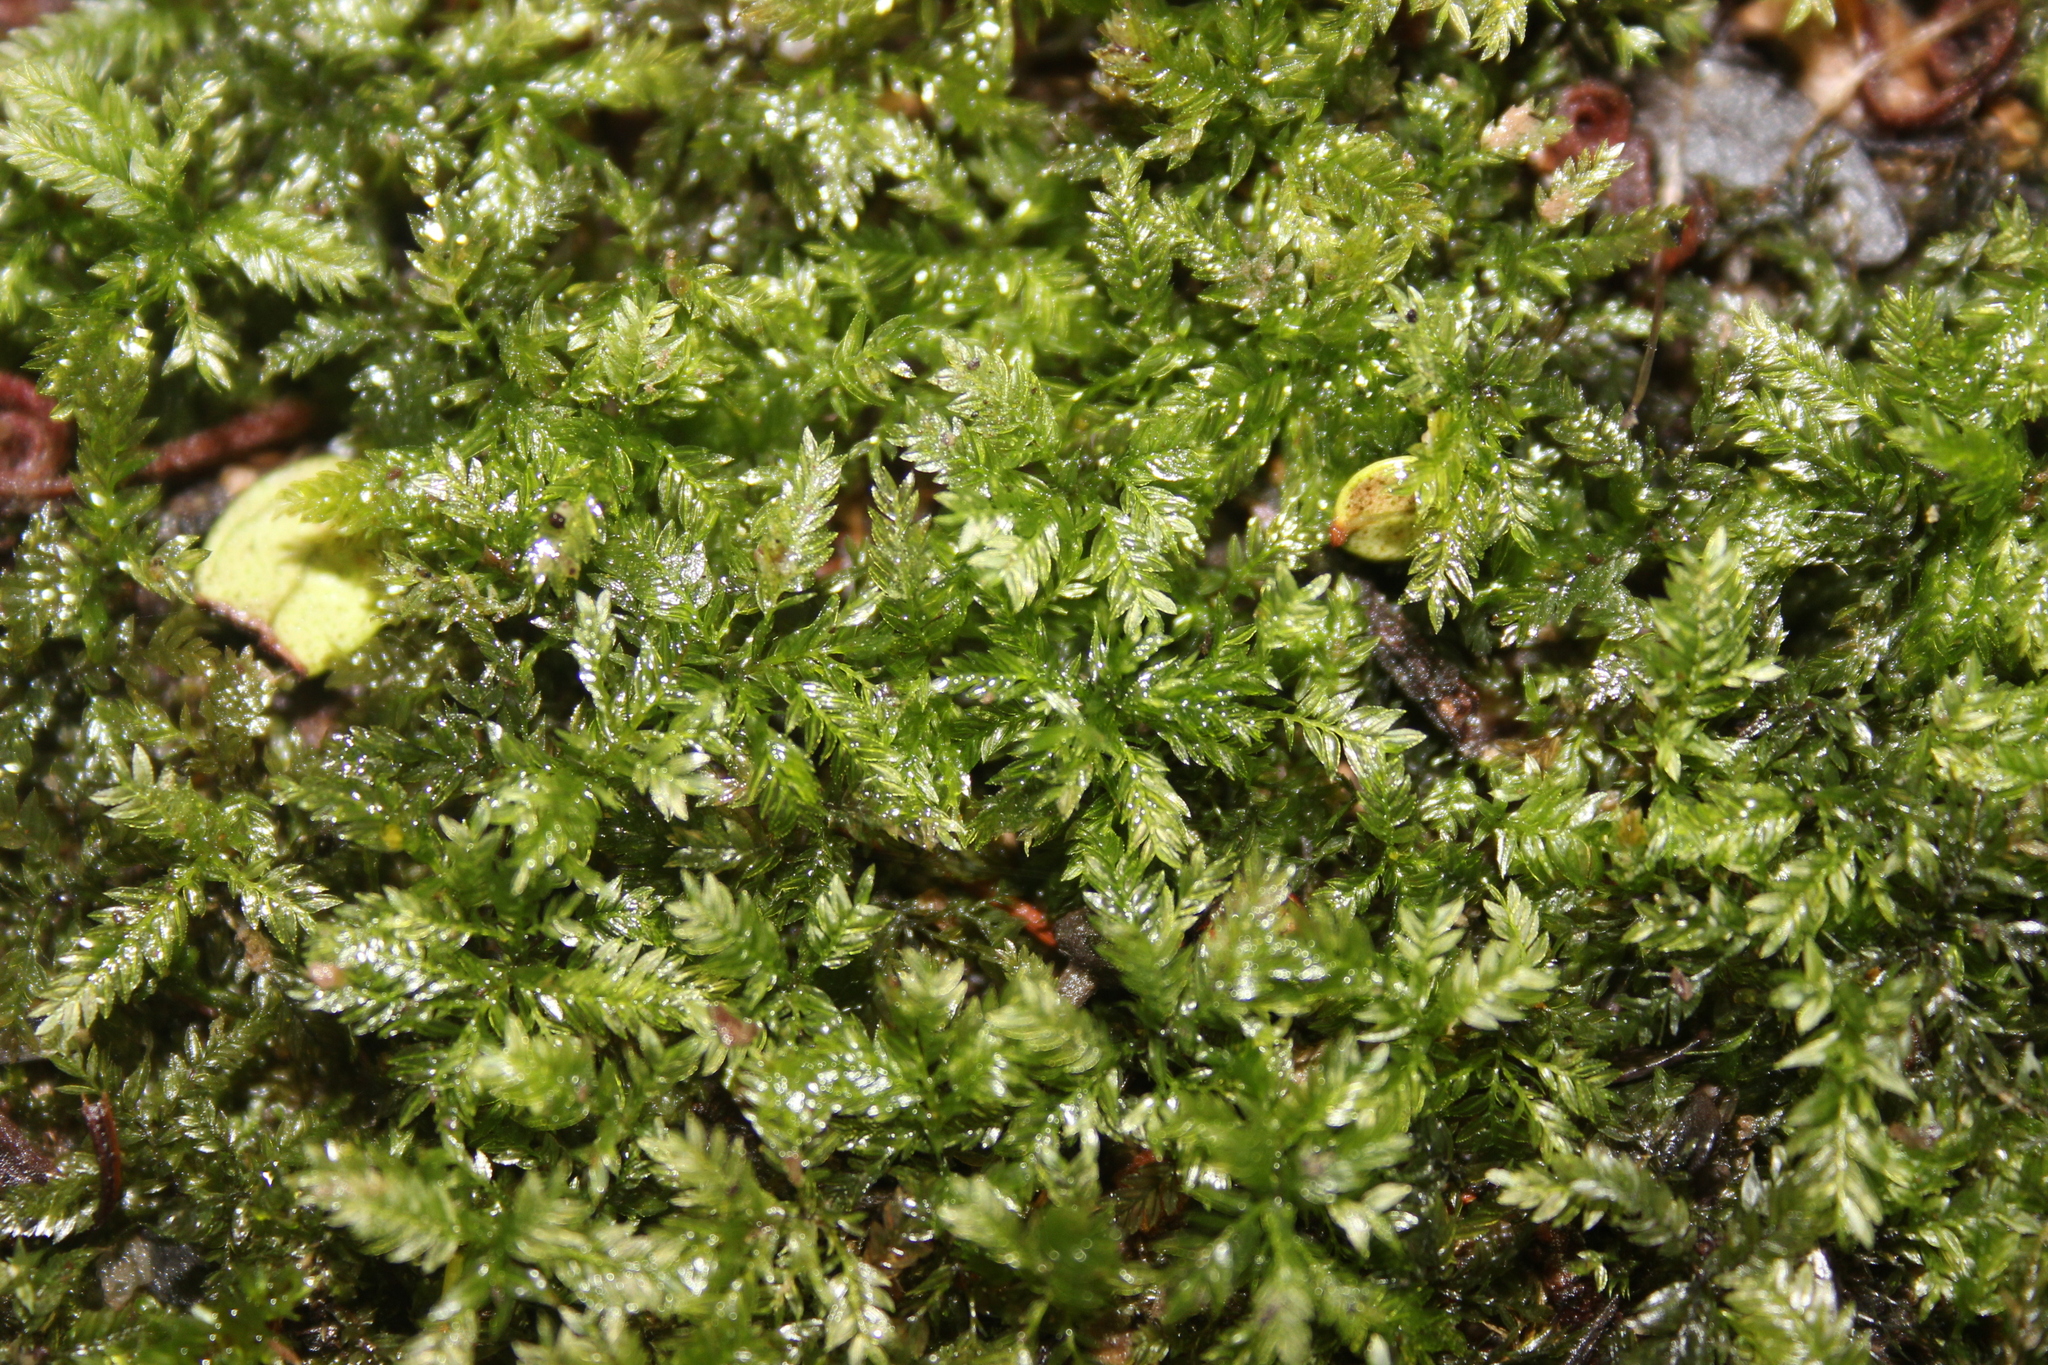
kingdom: Plantae
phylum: Bryophyta
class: Bryopsida
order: Aulacomniales
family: Aulacomniaceae
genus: Hymenodontopsis
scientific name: Hymenodontopsis bifaria
